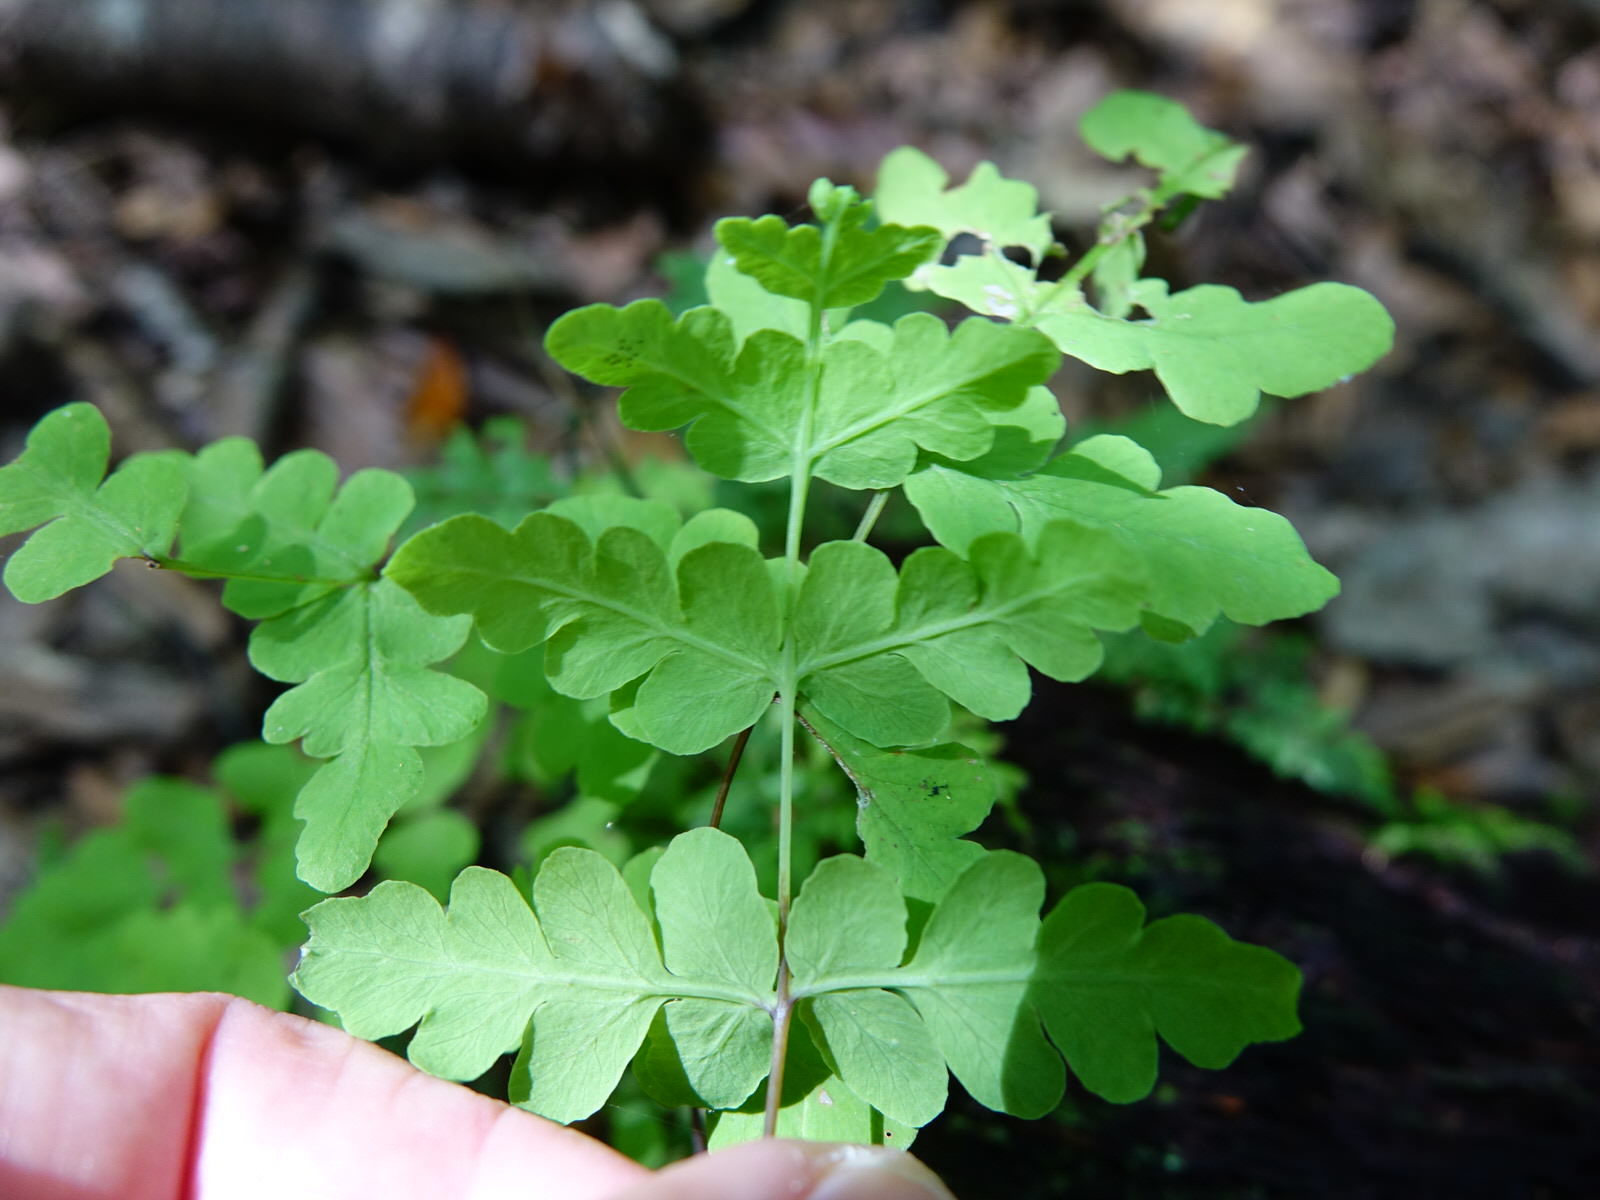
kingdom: Plantae
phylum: Tracheophyta
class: Polypodiopsida
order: Polypodiales
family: Dennstaedtiaceae
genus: Histiopteris
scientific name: Histiopteris incisa
